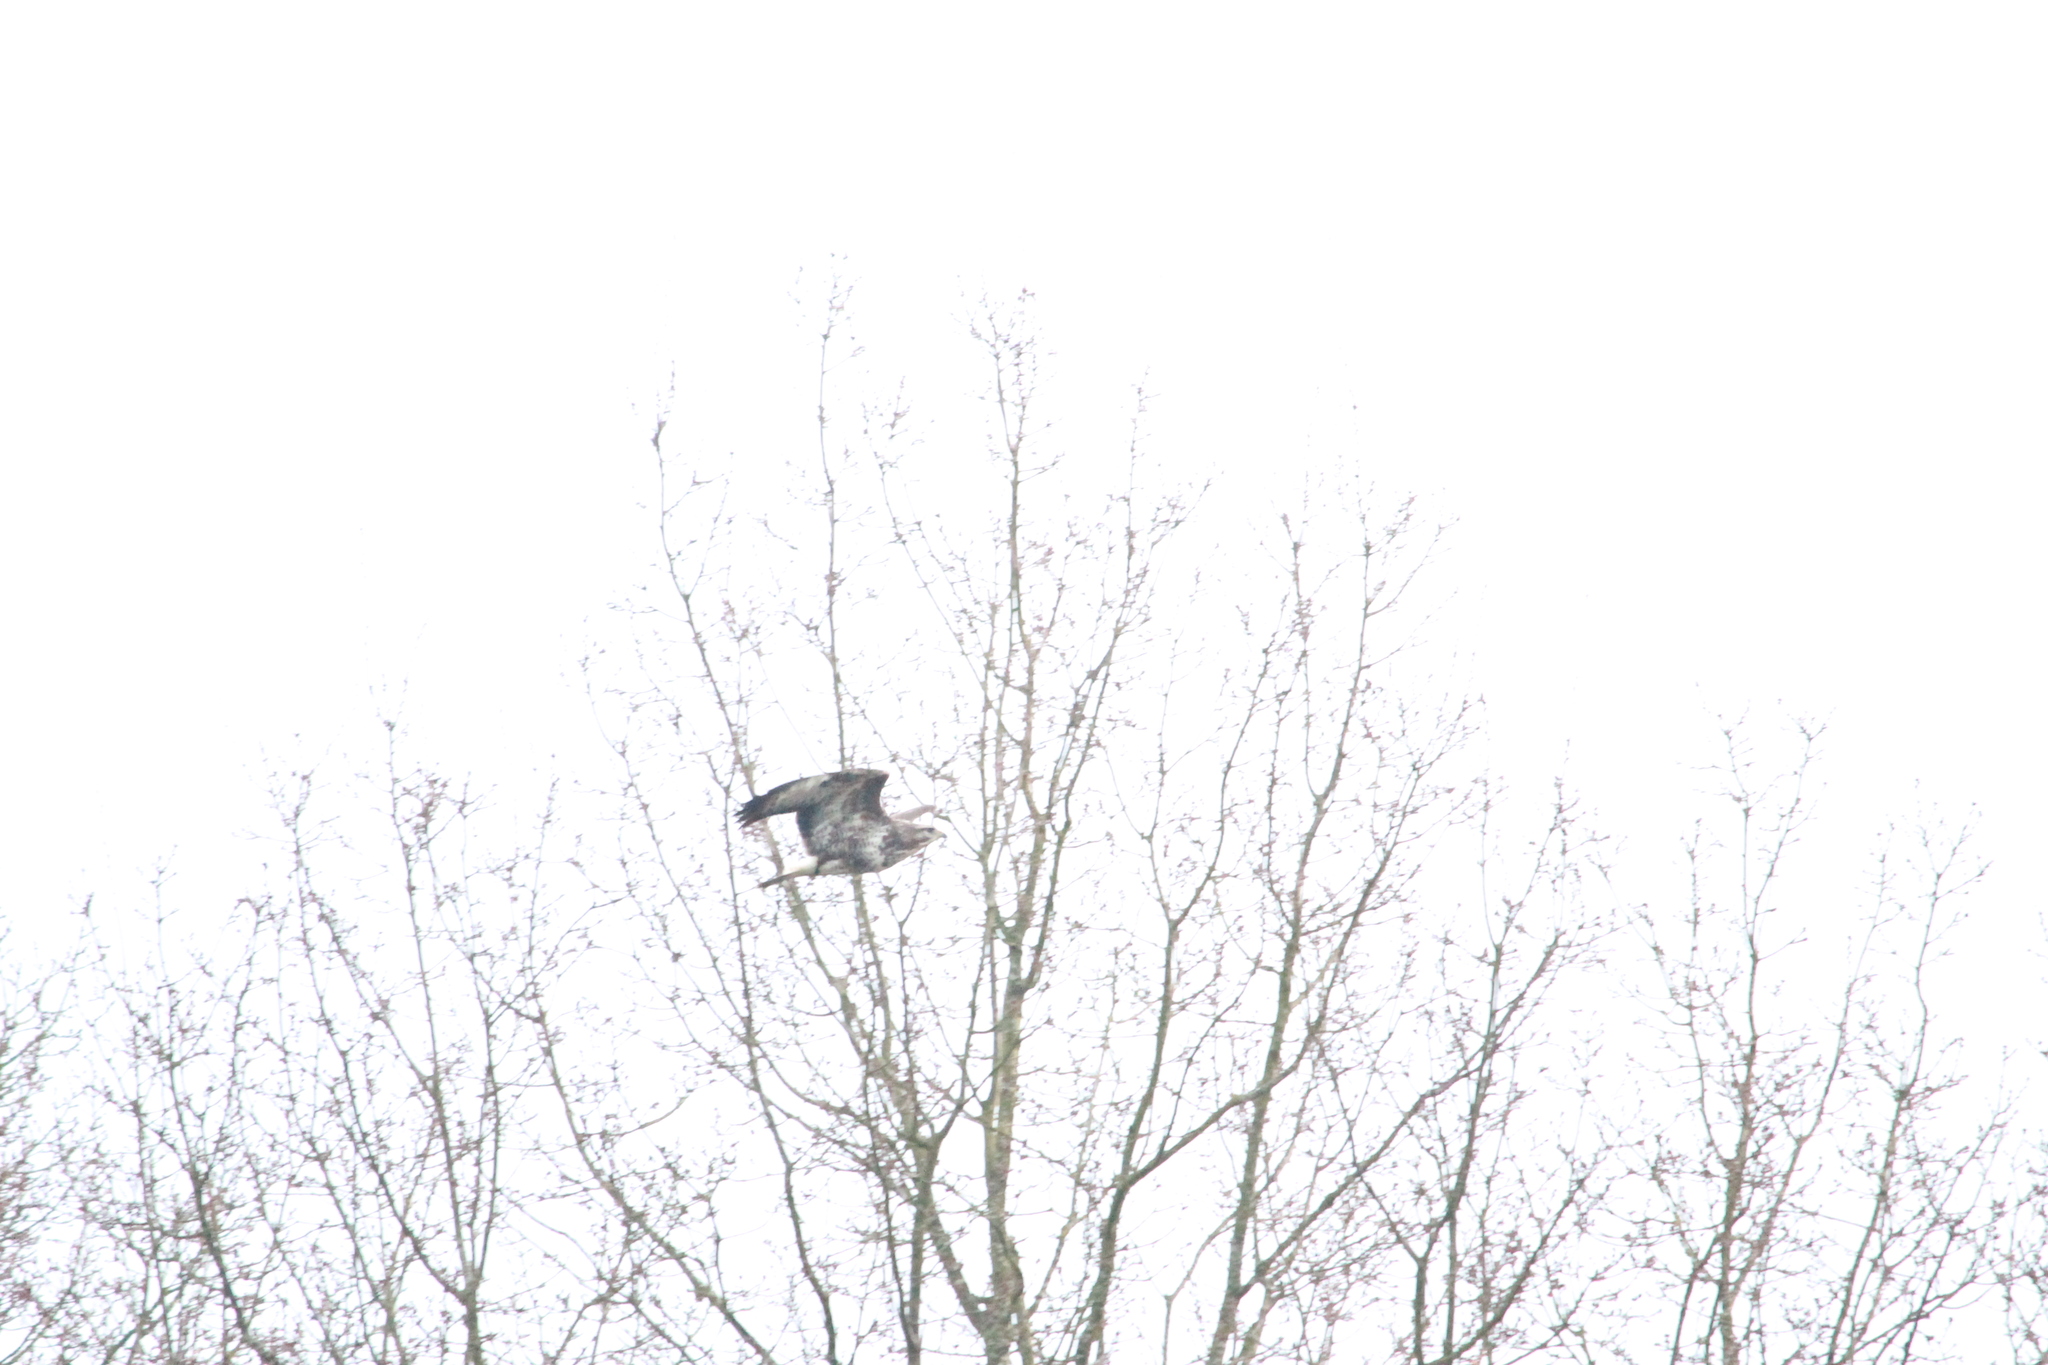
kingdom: Animalia
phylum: Chordata
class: Aves
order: Accipitriformes
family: Accipitridae
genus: Buteo
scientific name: Buteo buteo
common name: Common buzzard
